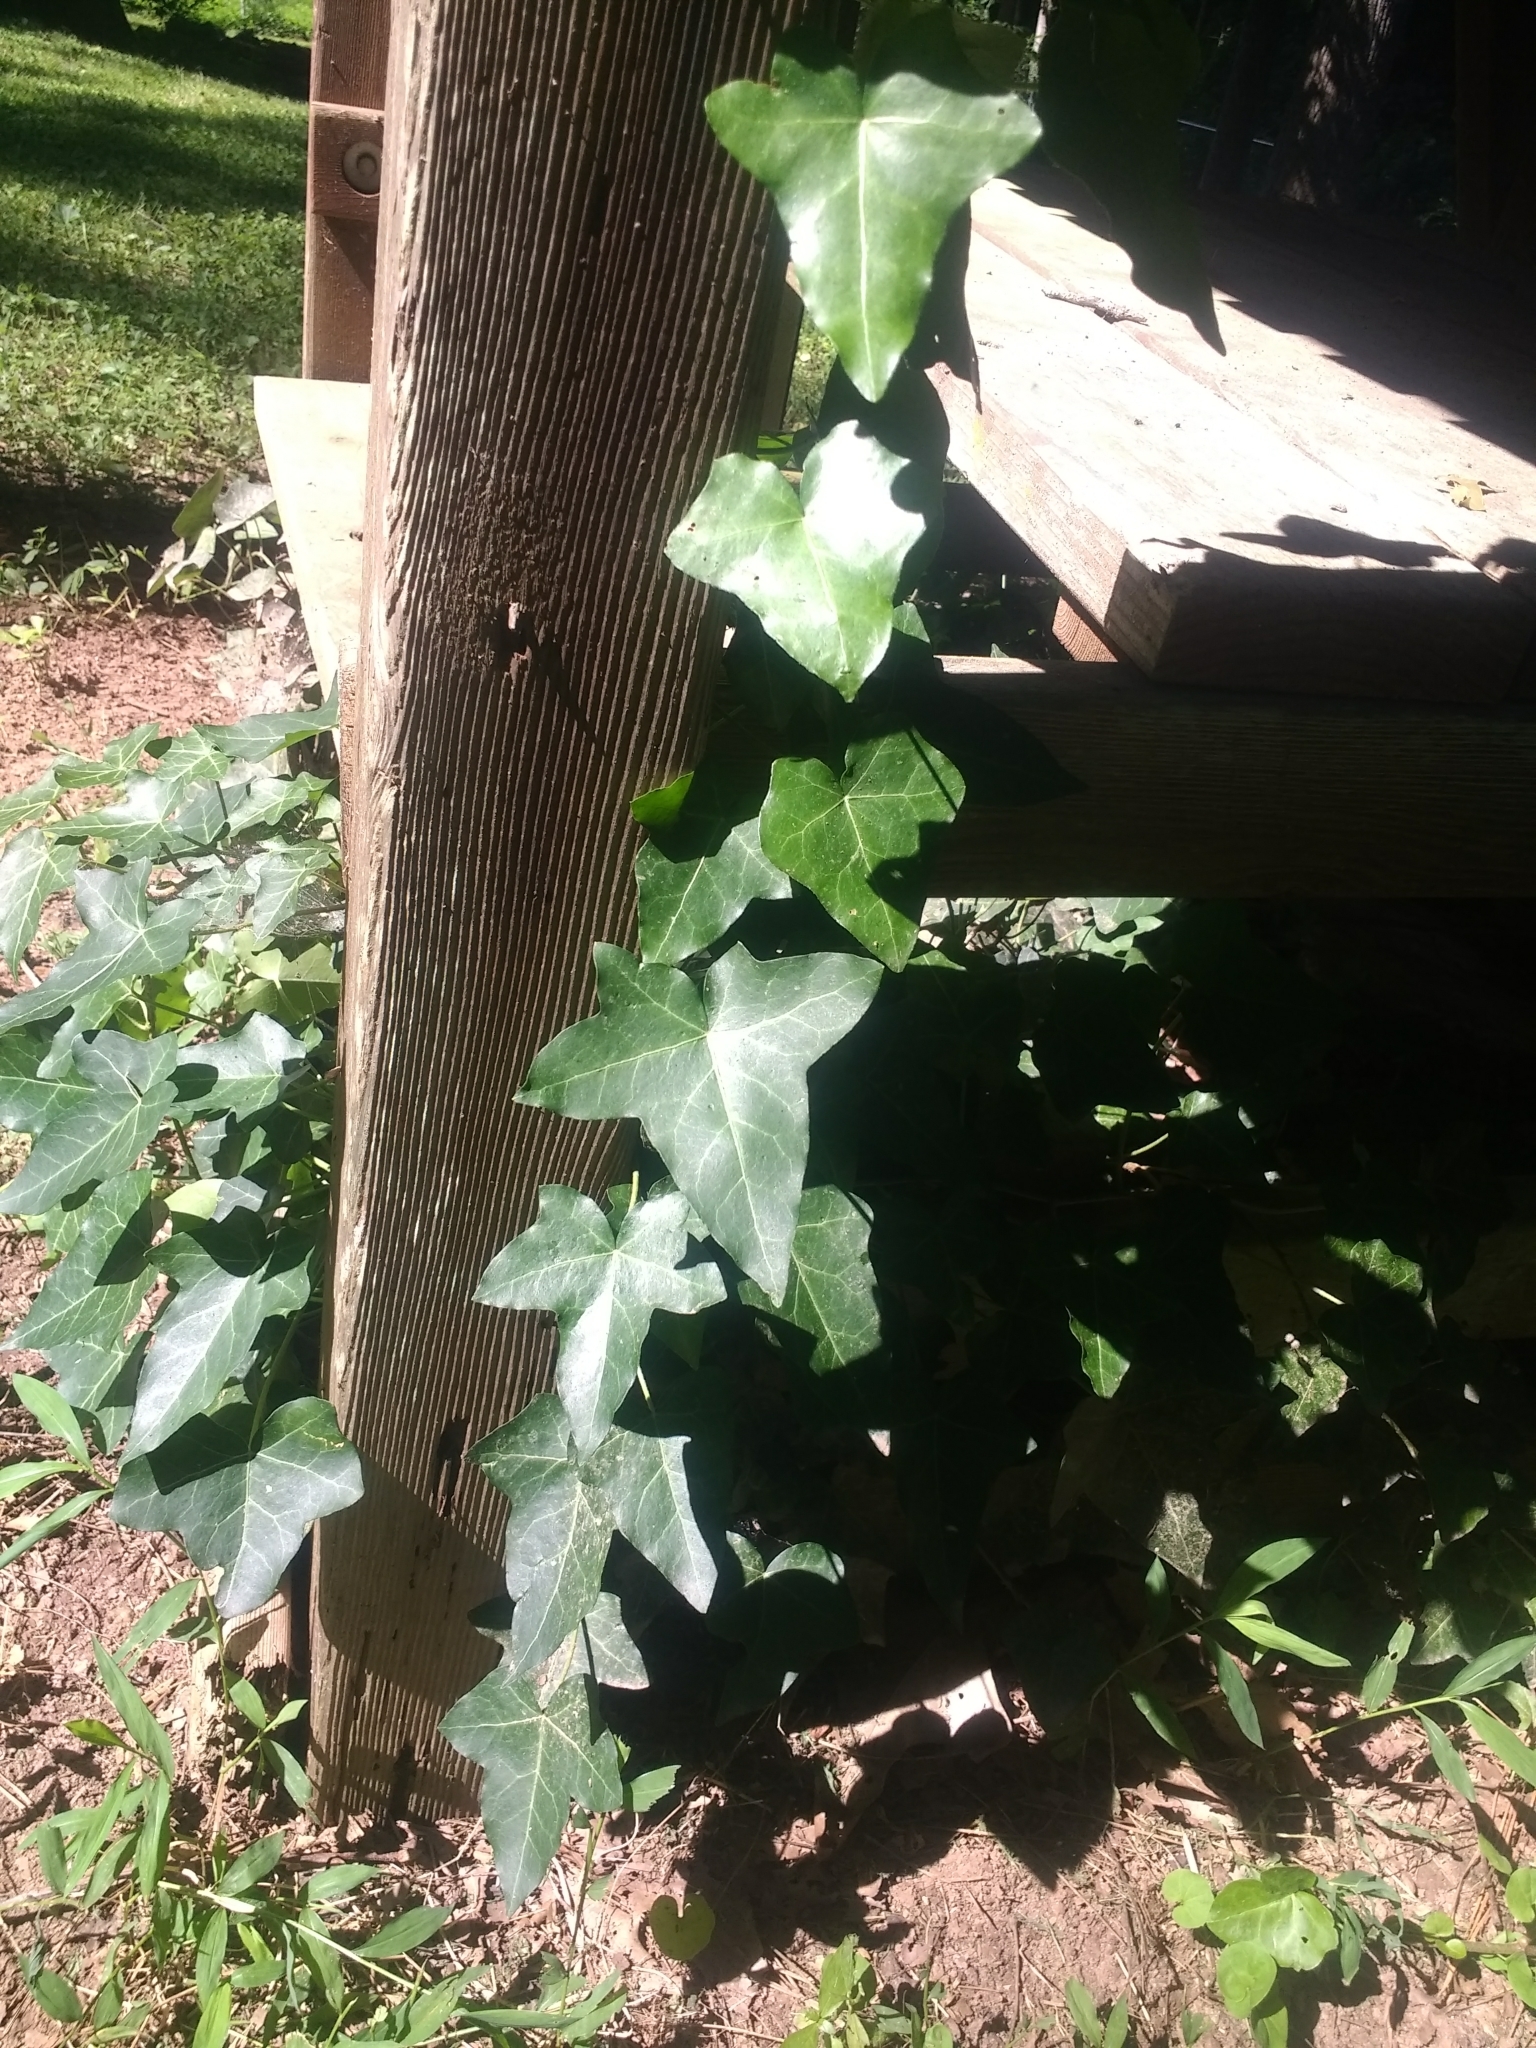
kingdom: Plantae
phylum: Tracheophyta
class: Magnoliopsida
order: Apiales
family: Araliaceae
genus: Hedera
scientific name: Hedera helix
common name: Ivy
